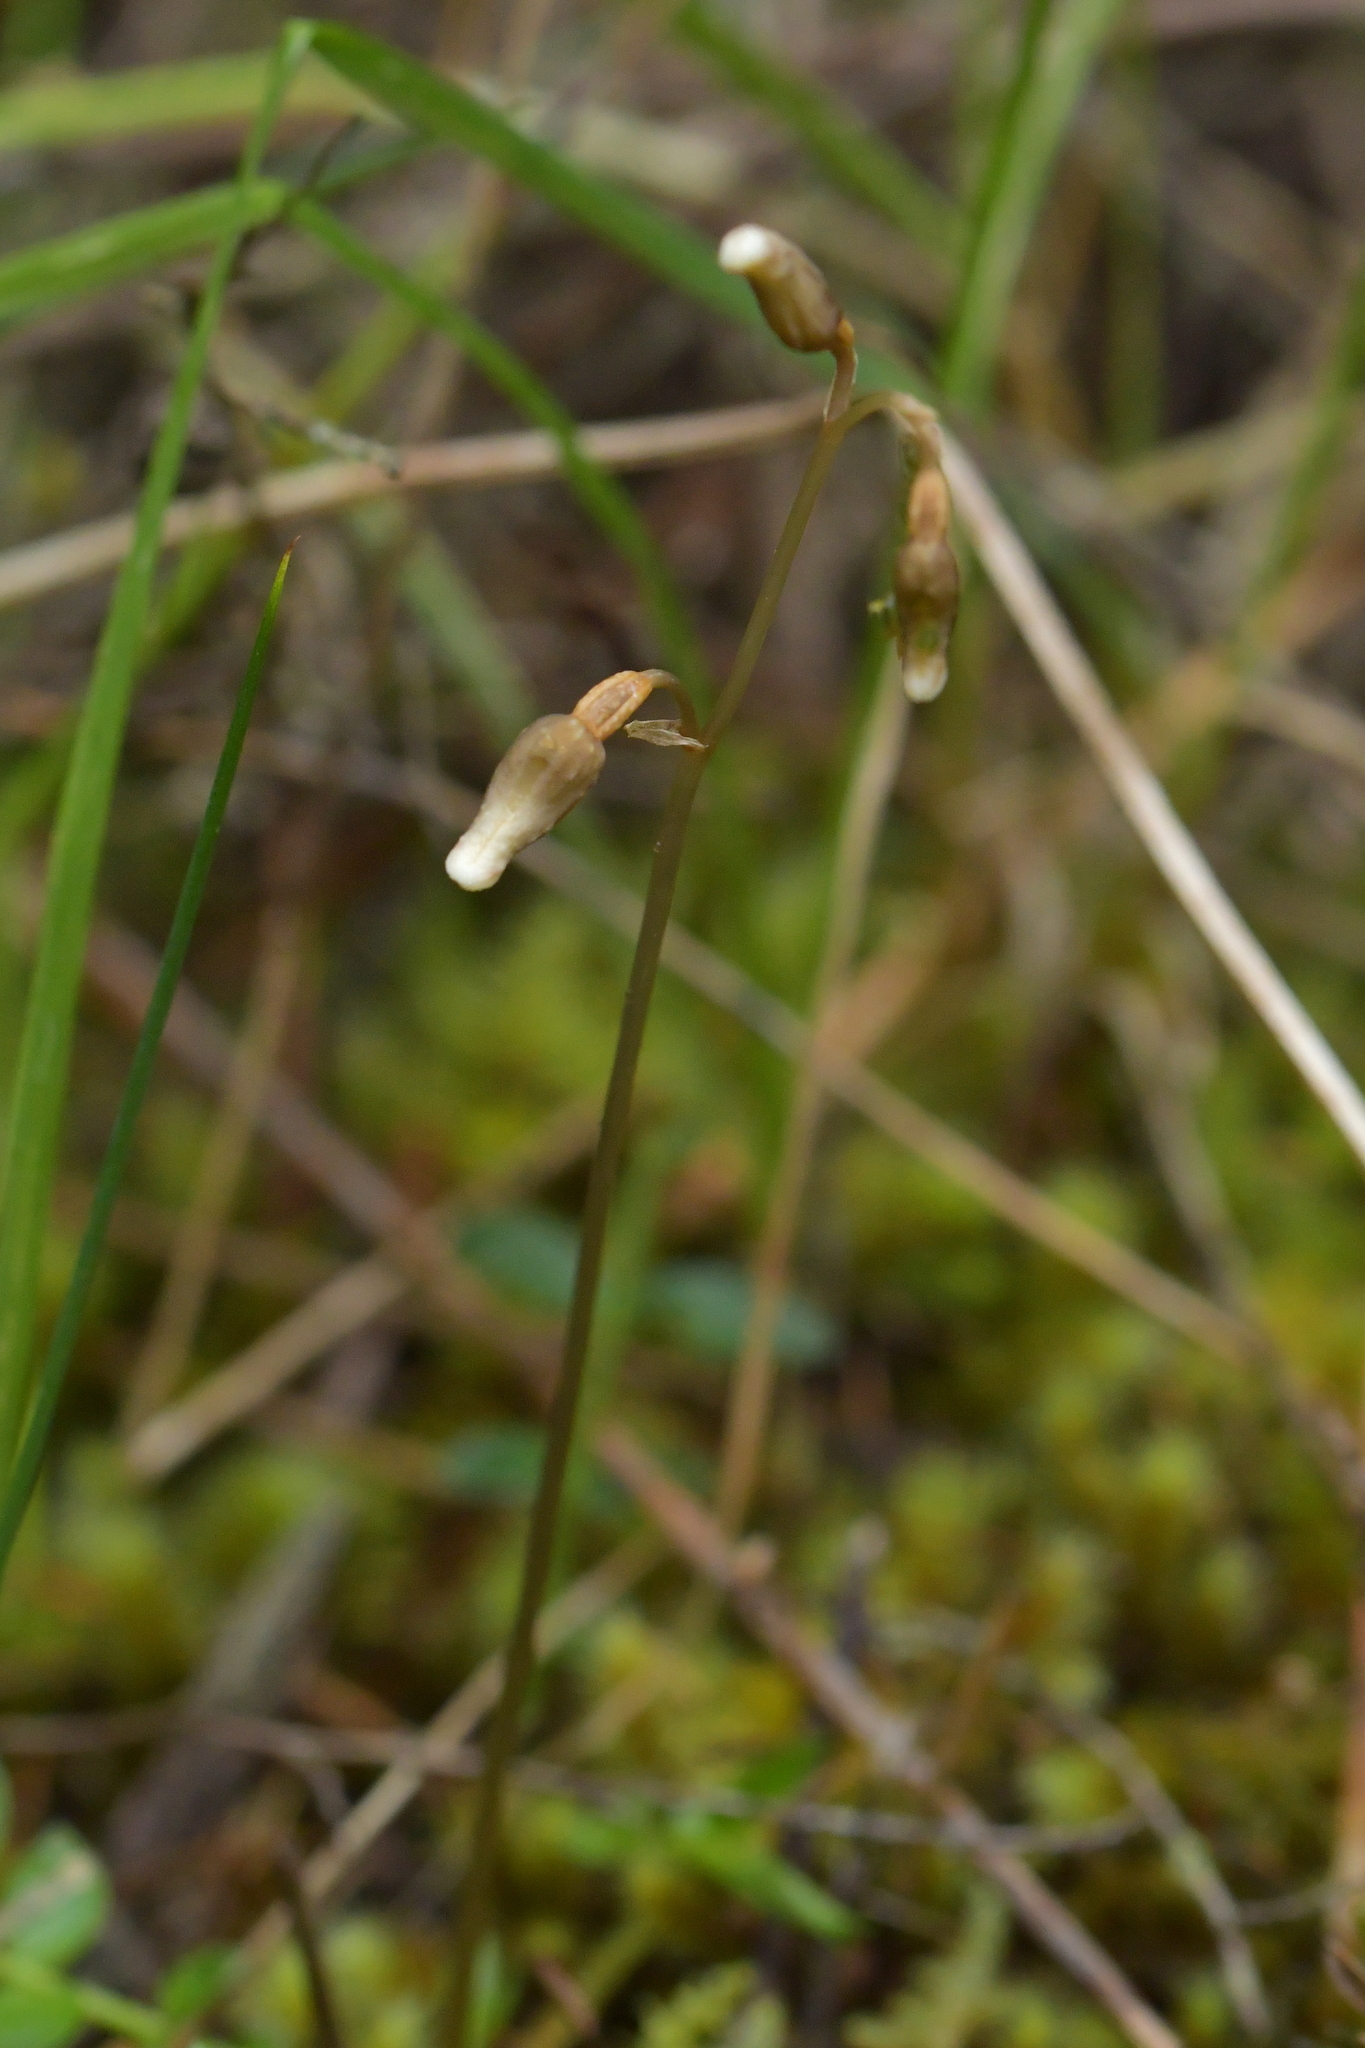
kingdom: Plantae
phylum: Tracheophyta
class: Liliopsida
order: Asparagales
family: Orchidaceae
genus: Gastrodia
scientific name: Gastrodia minor
